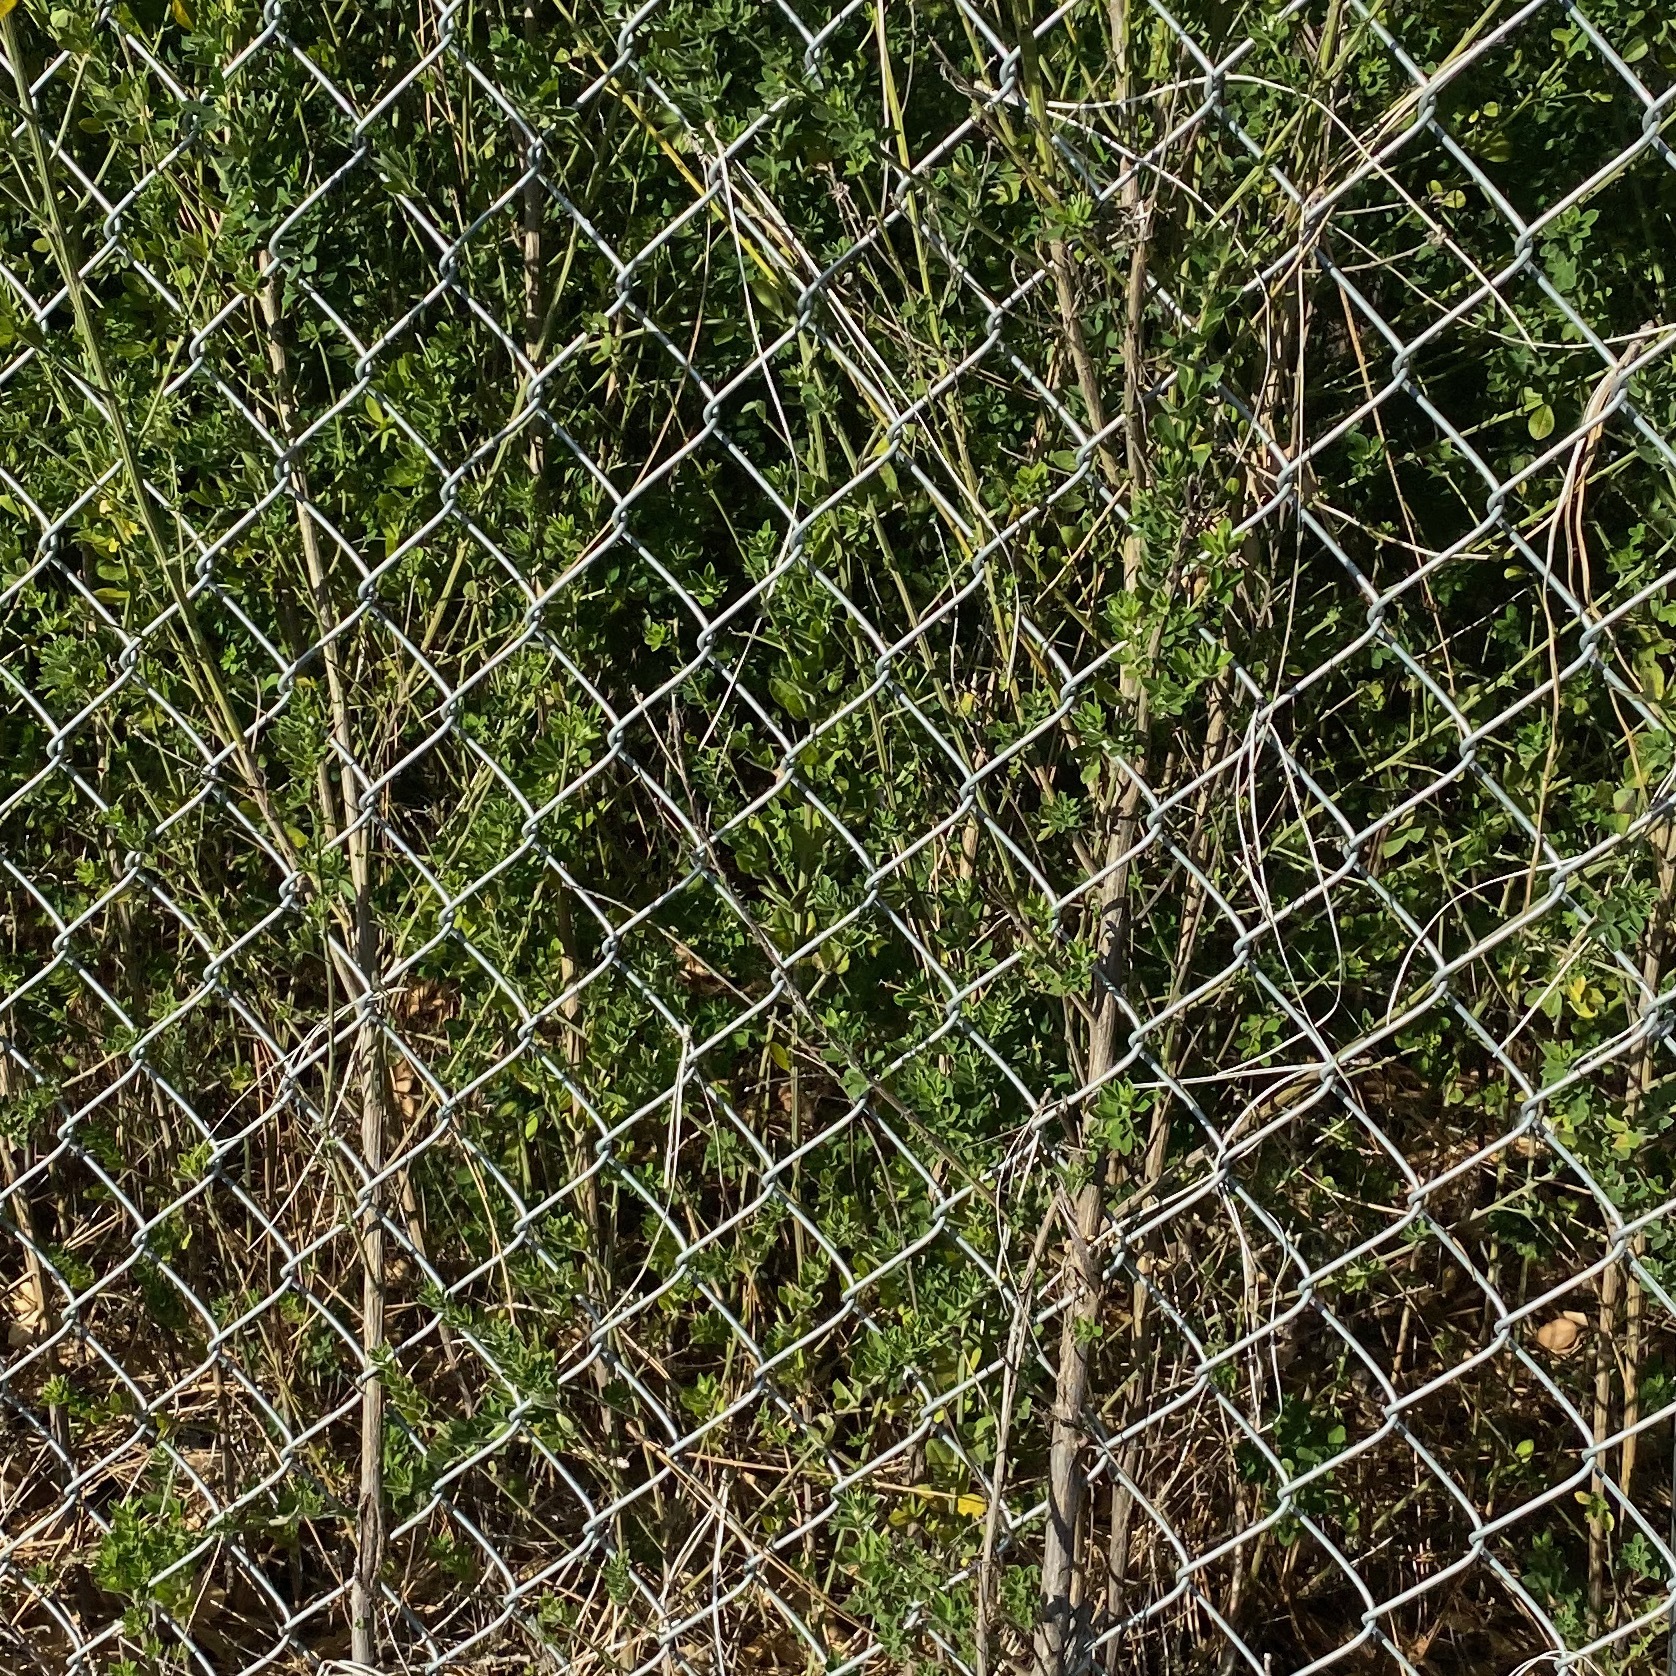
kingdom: Plantae
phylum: Tracheophyta
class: Magnoliopsida
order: Fabales
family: Fabaceae
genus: Genista
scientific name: Genista monspessulana
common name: Montpellier broom
